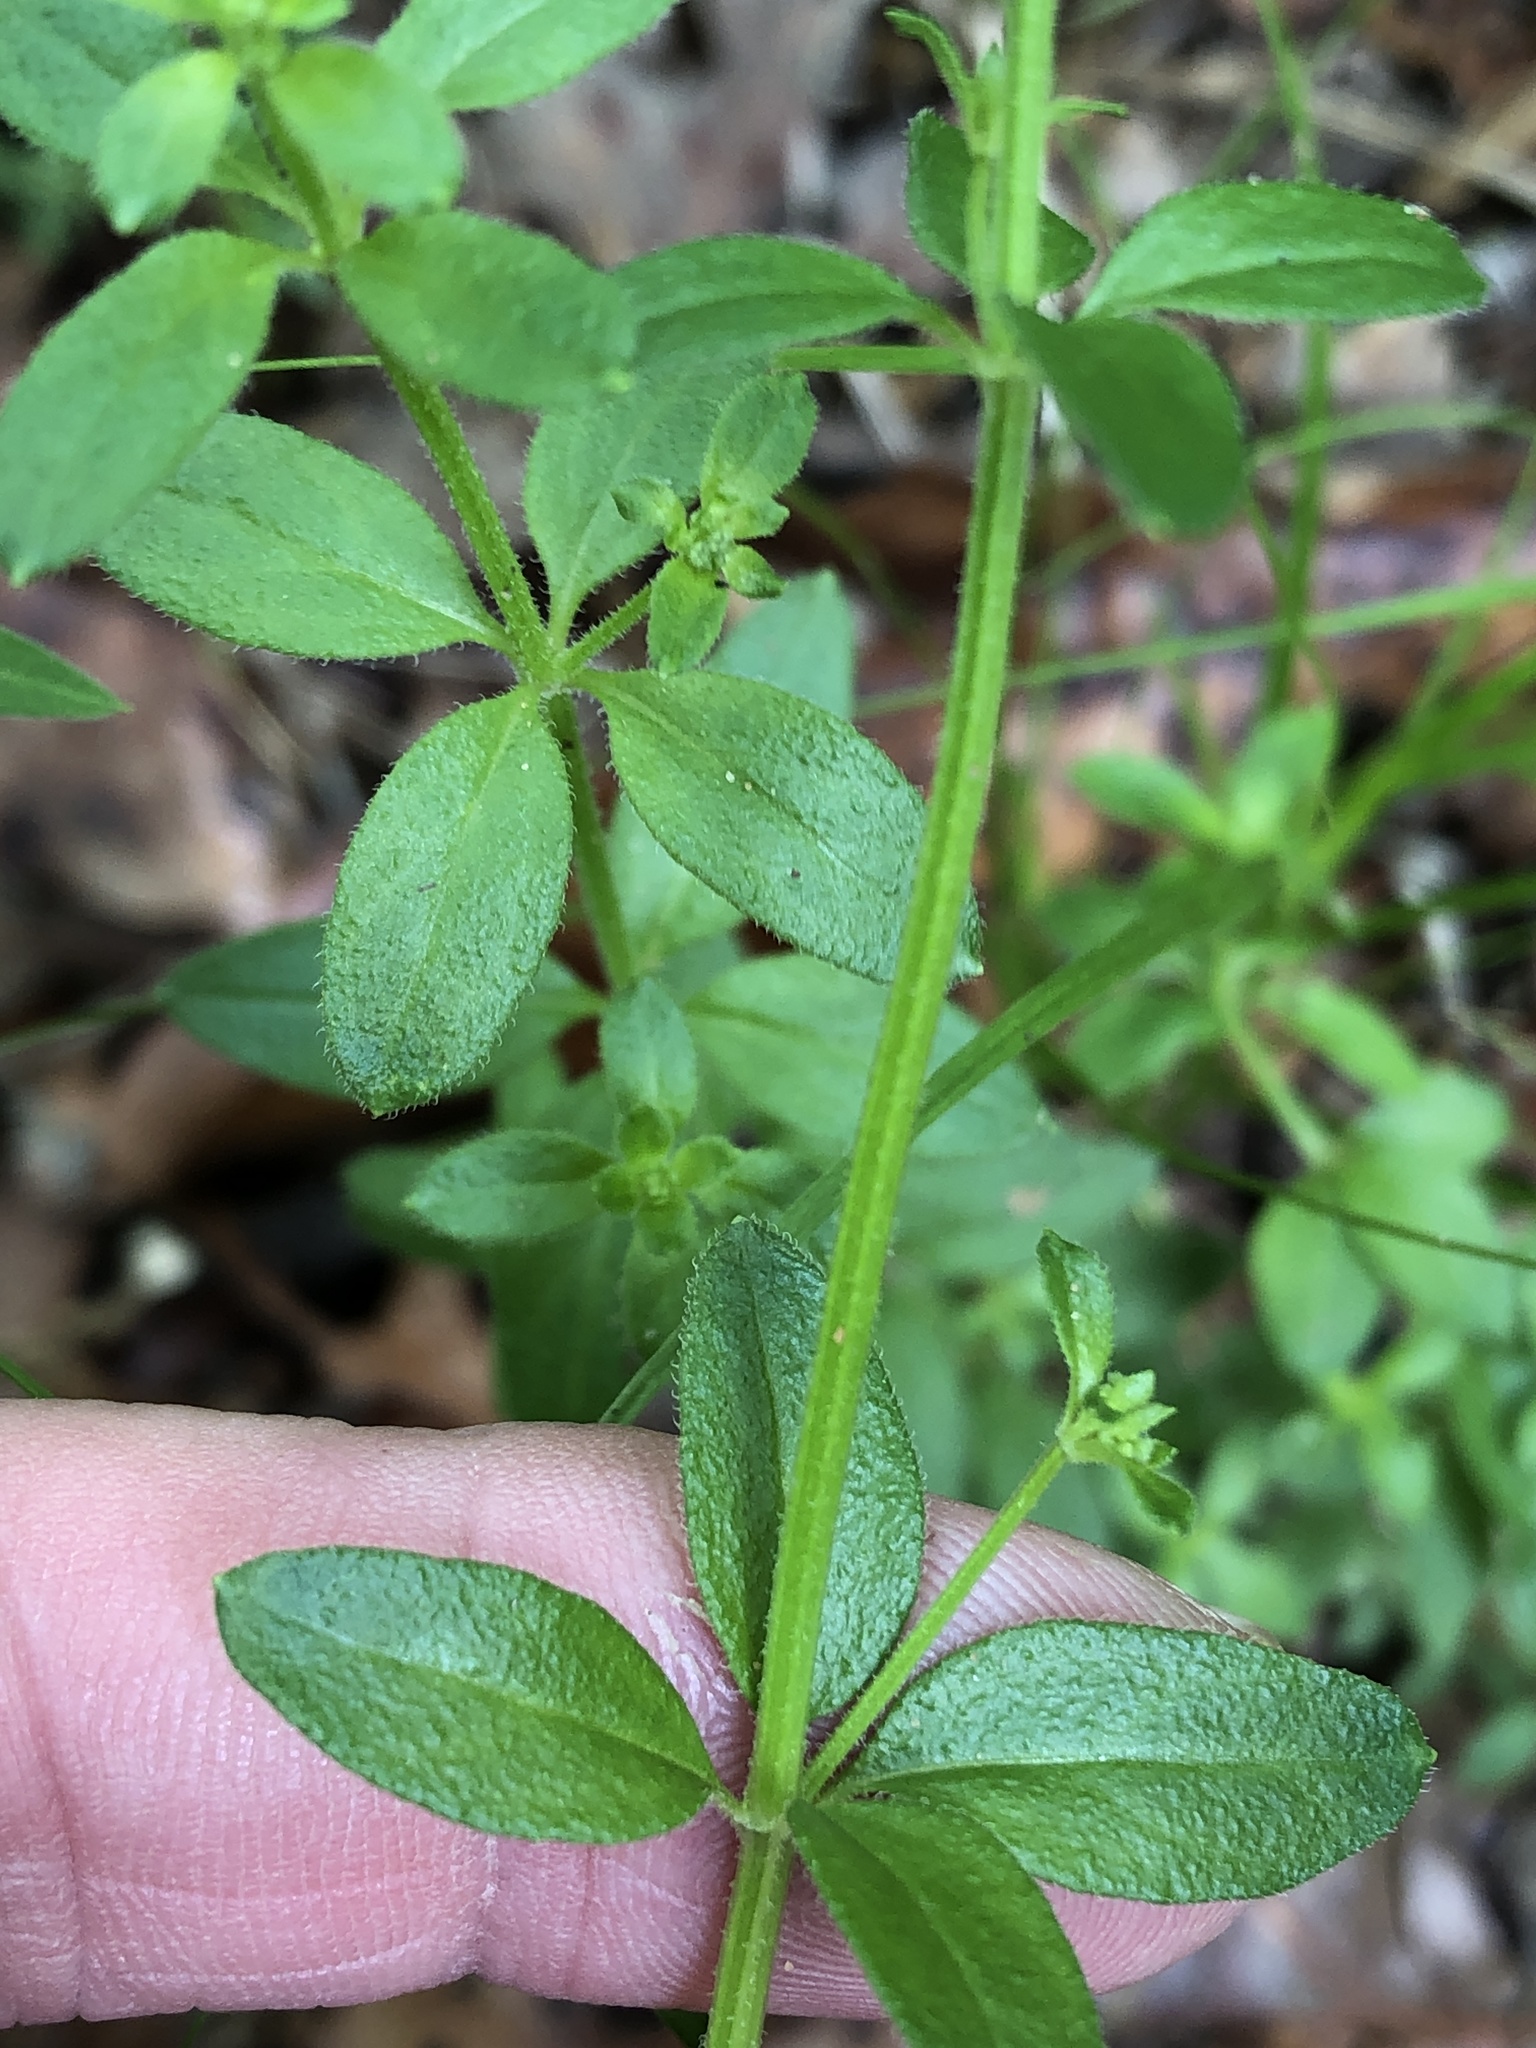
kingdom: Plantae
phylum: Tracheophyta
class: Magnoliopsida
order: Gentianales
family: Rubiaceae
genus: Galium
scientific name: Galium pilosum
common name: Hairy bedstraw
